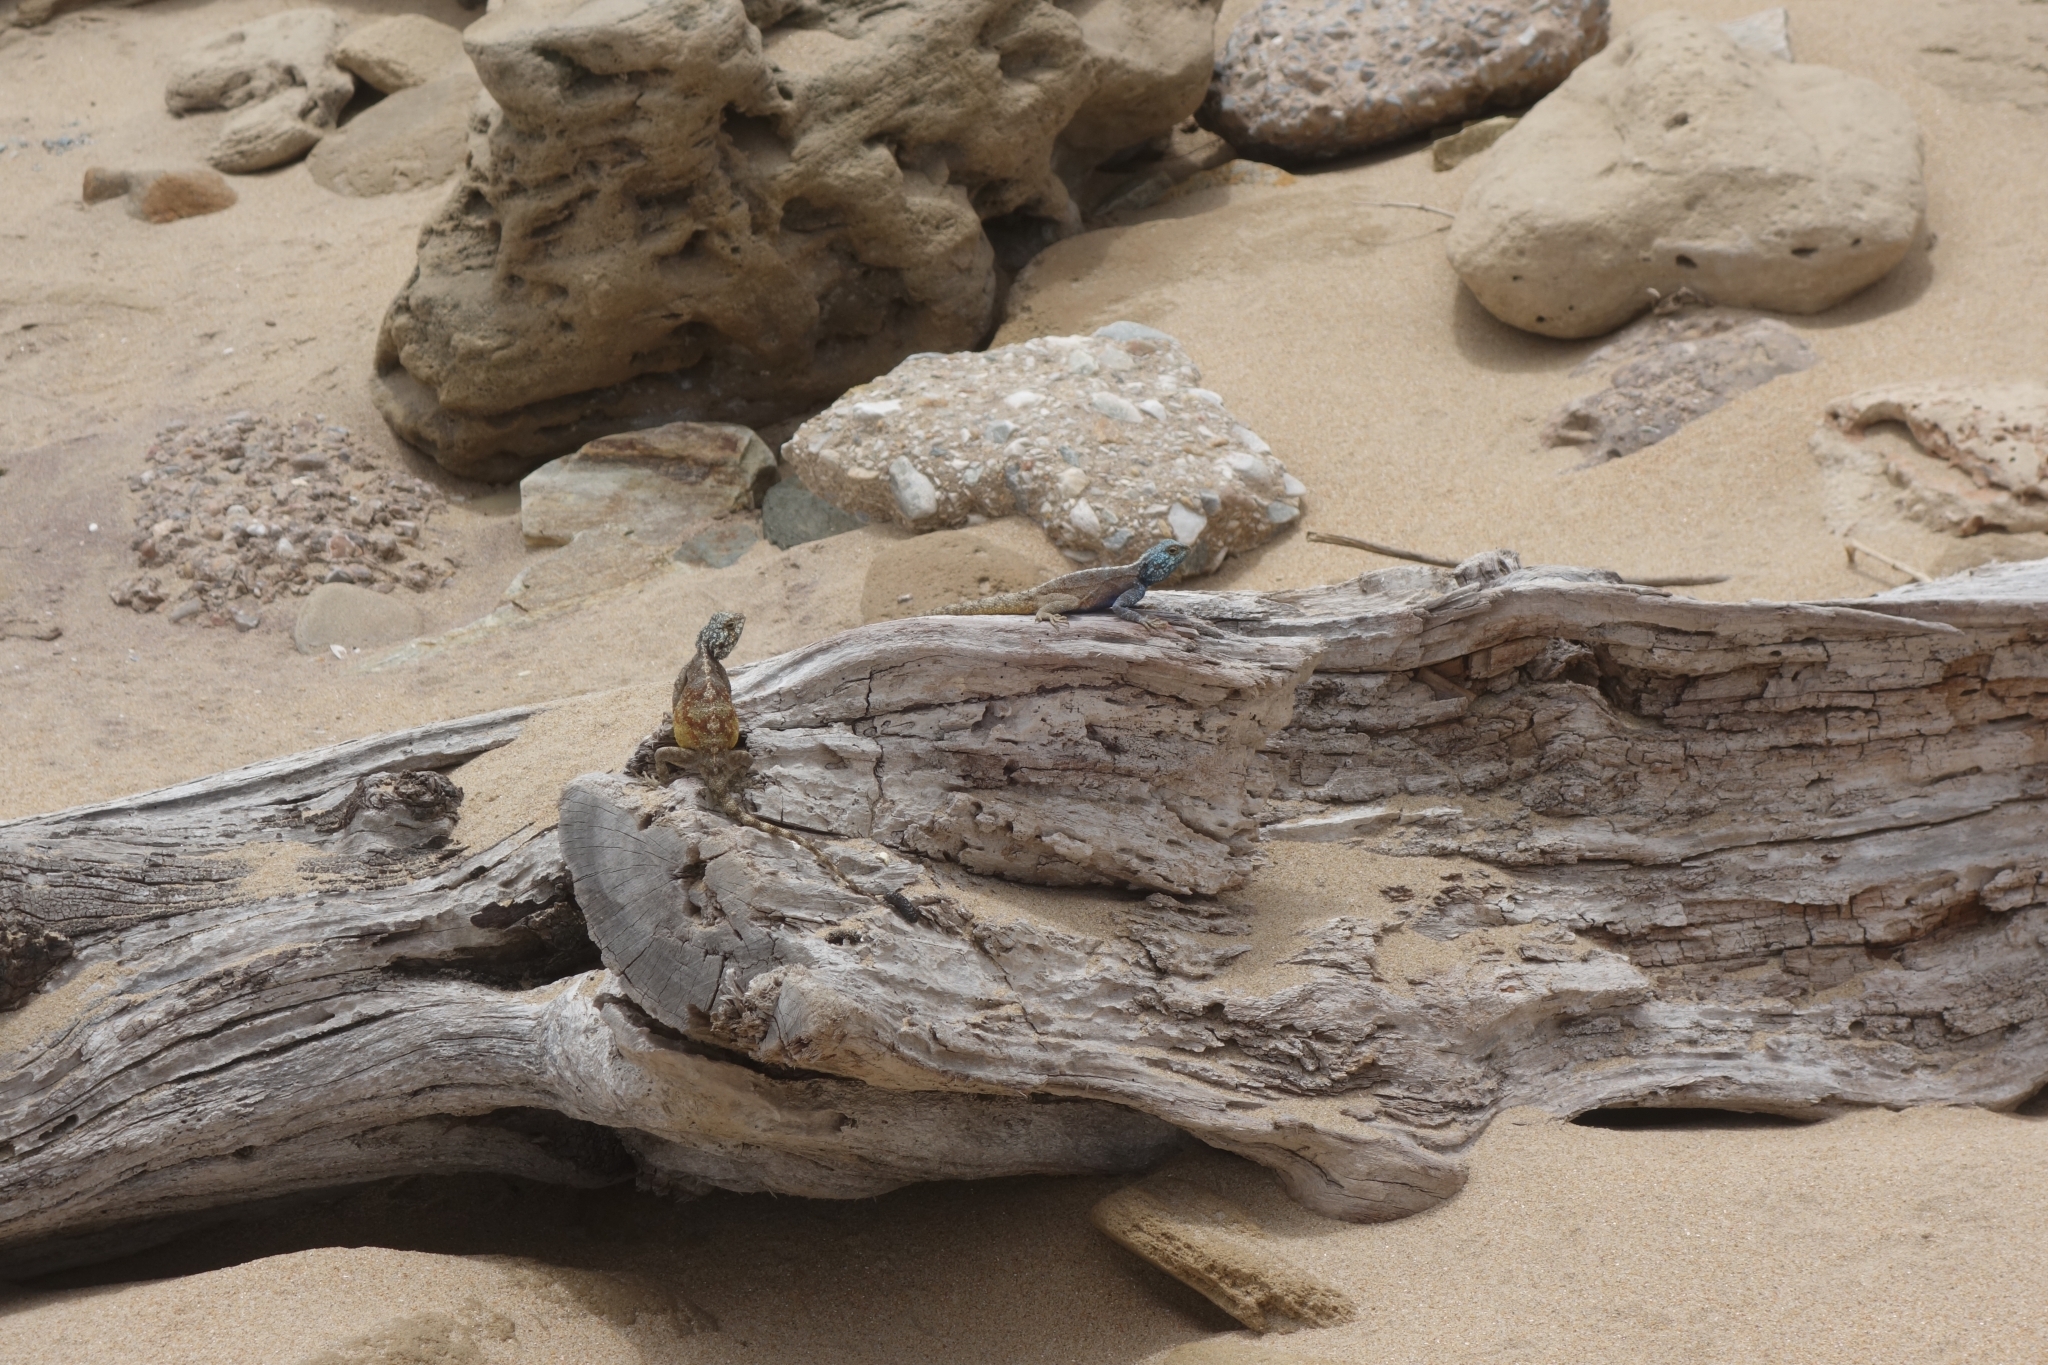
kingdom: Animalia
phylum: Chordata
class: Squamata
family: Agamidae
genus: Agama
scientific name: Agama atra
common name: Southern african rock agama
